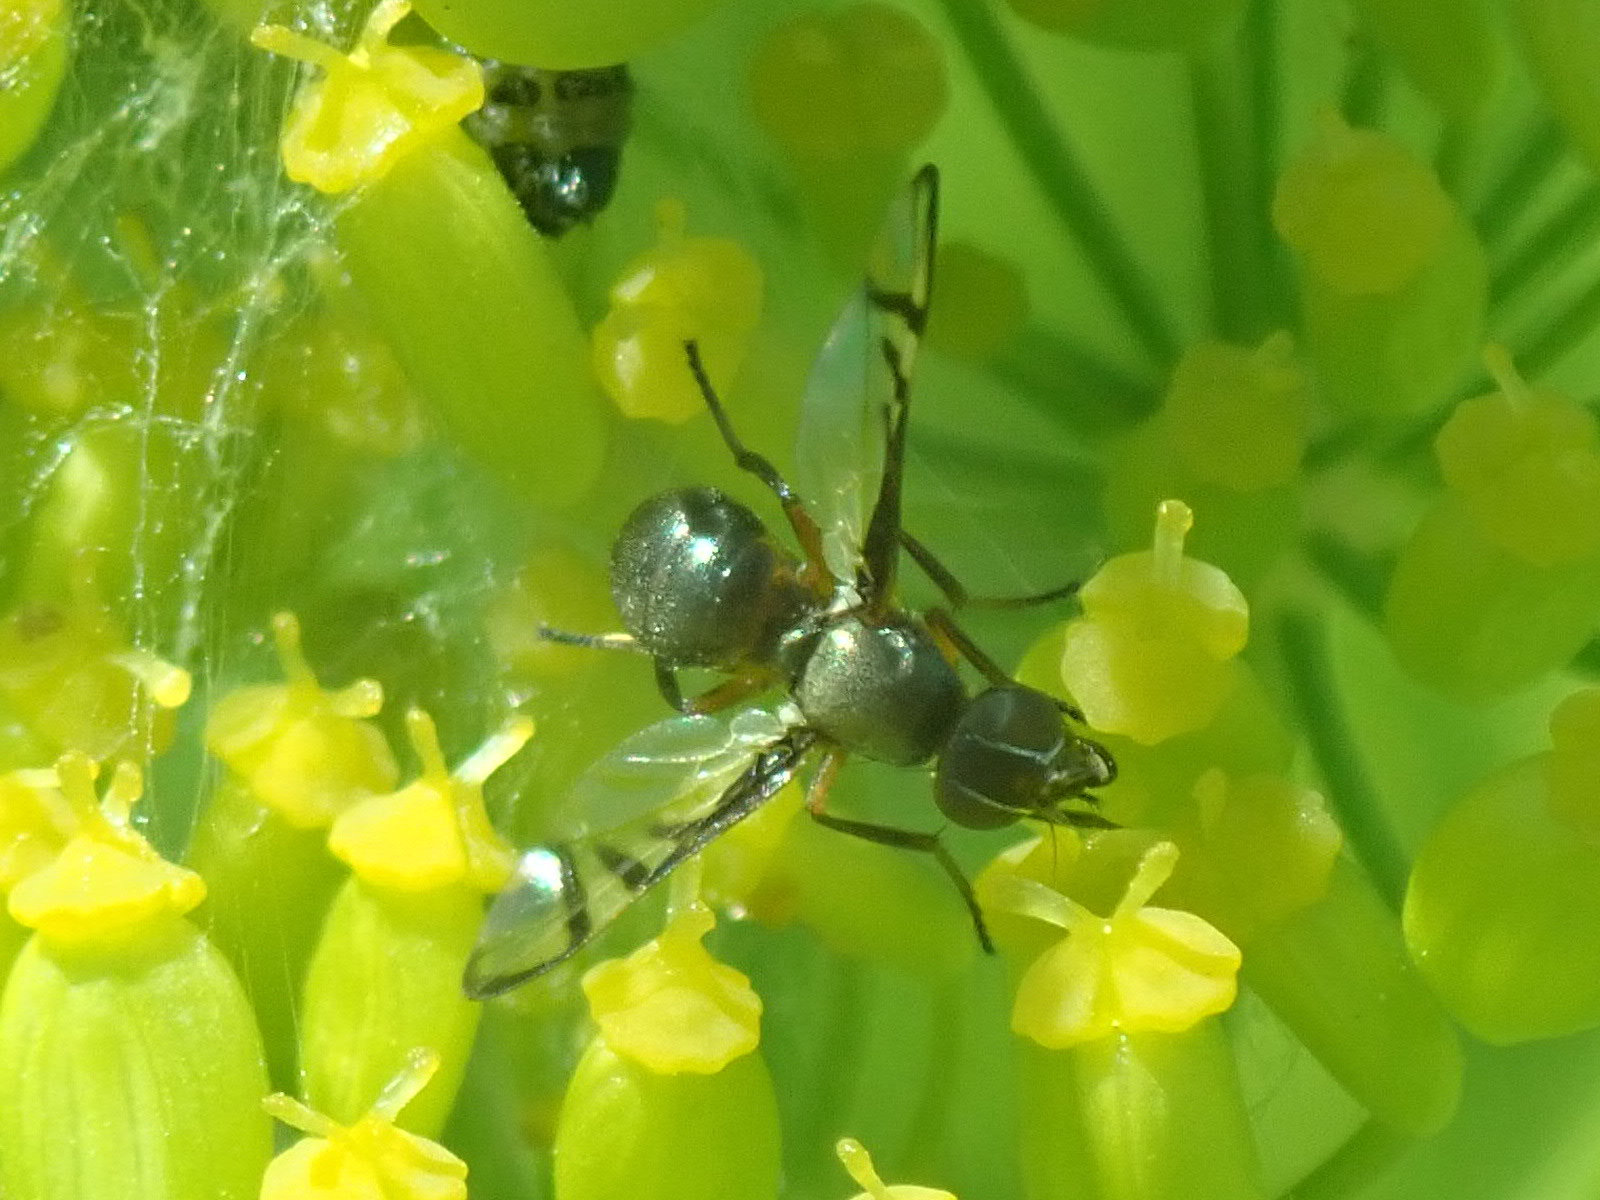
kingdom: Animalia
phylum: Arthropoda
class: Insecta
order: Diptera
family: Platystomatidae
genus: Rivellia
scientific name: Rivellia cognata
